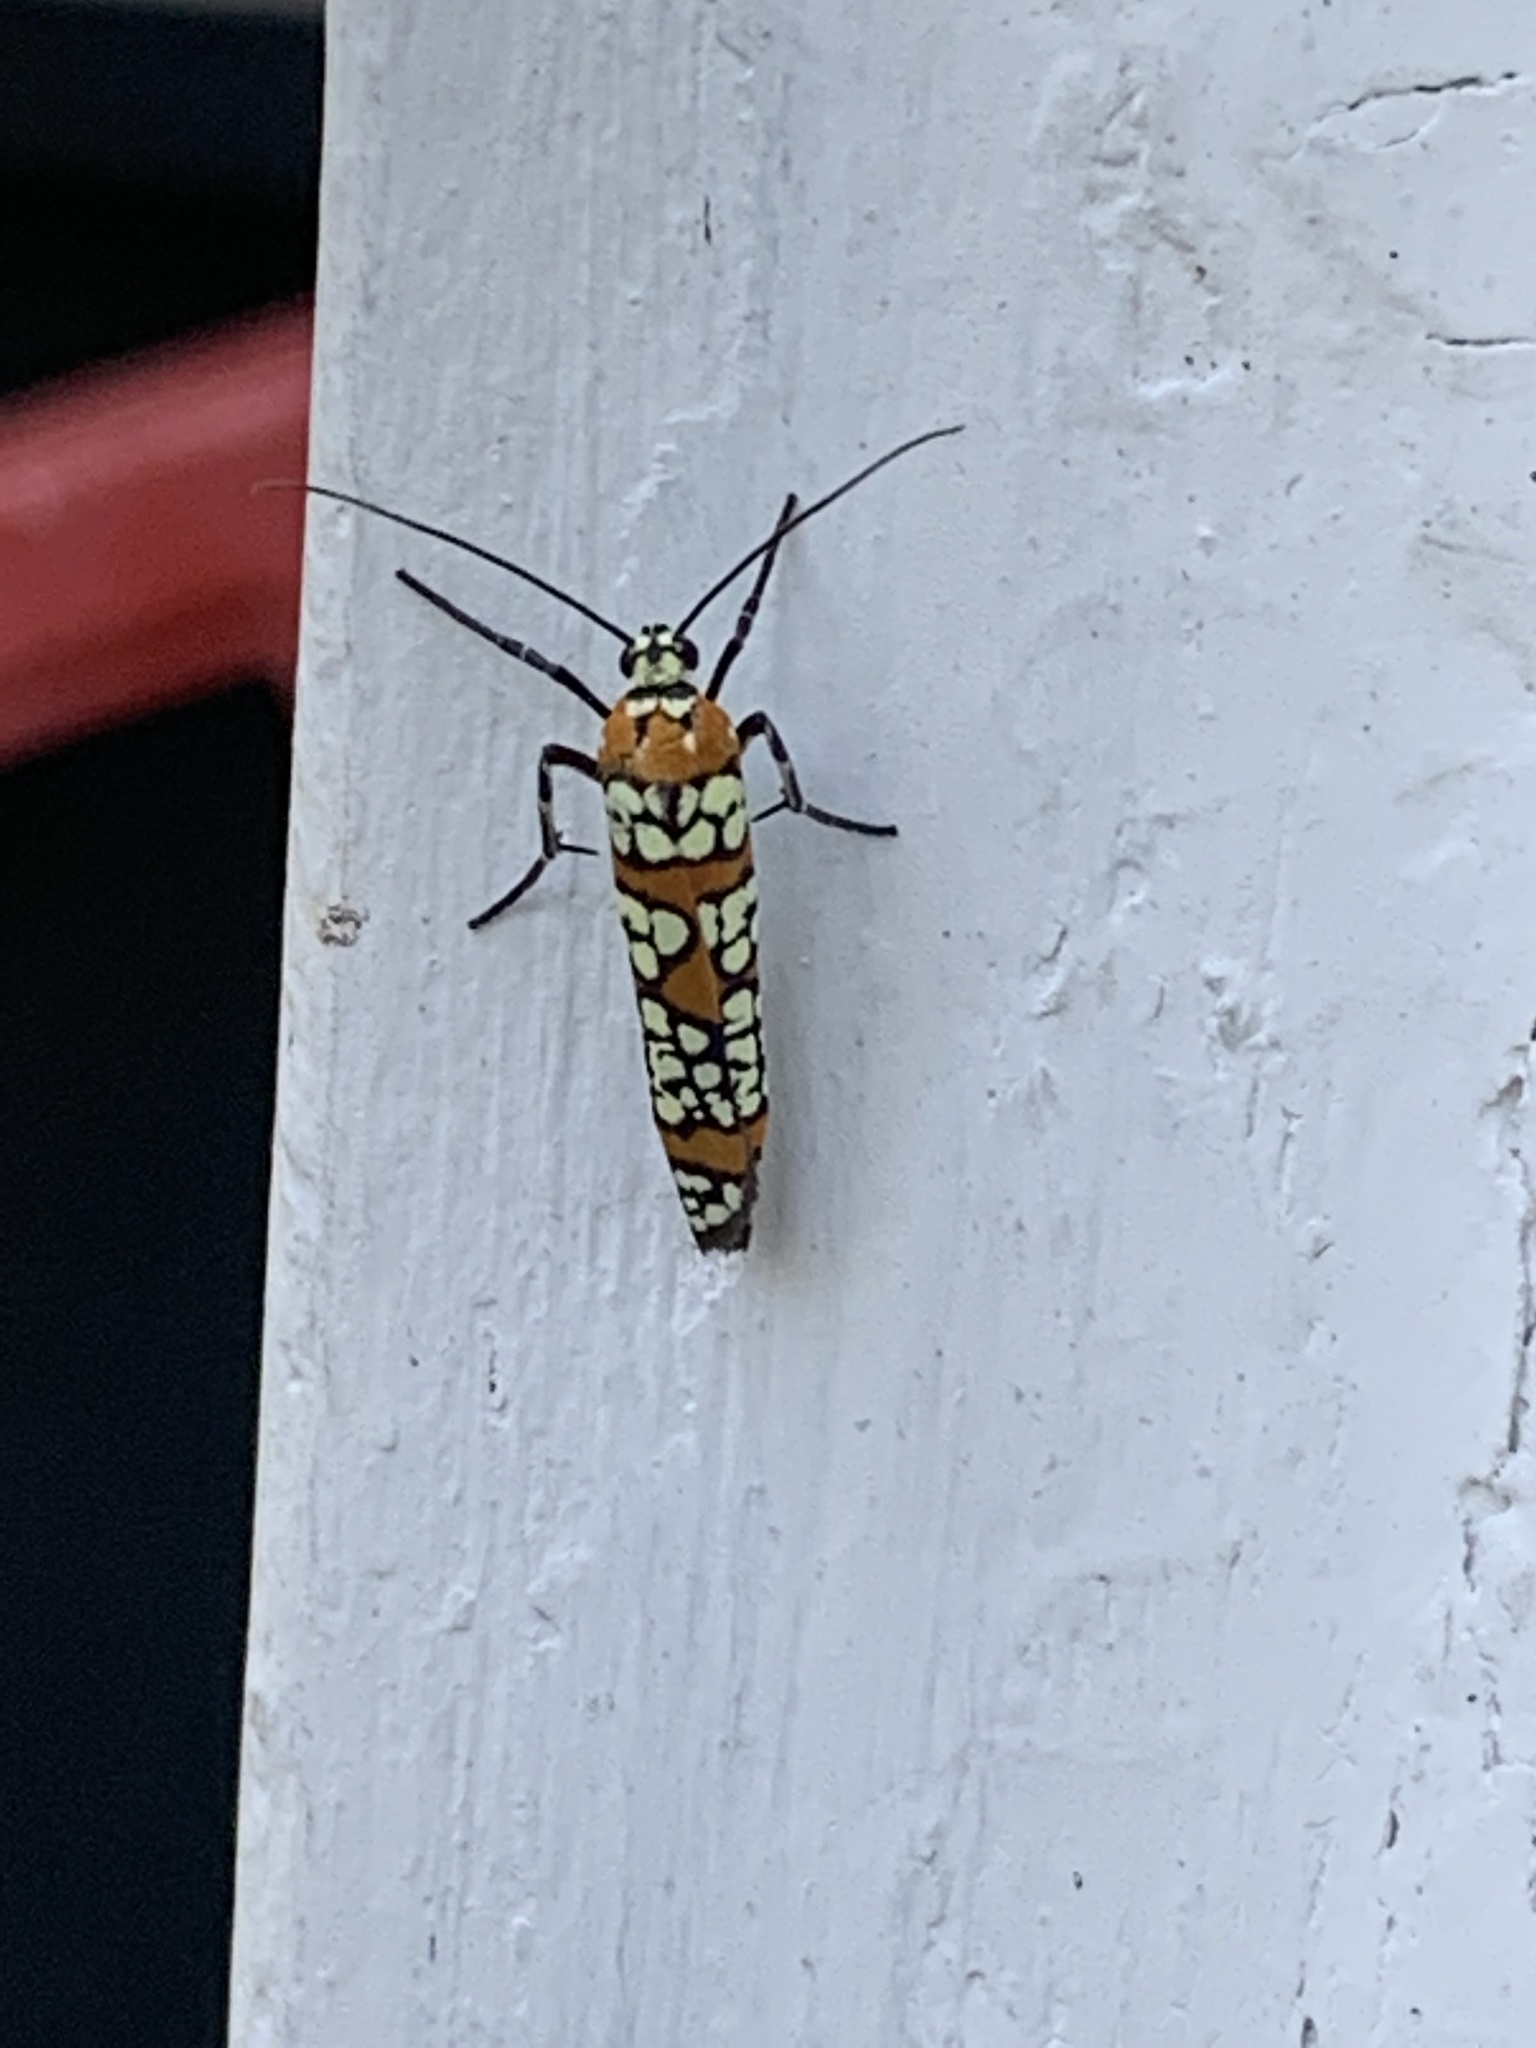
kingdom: Animalia
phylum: Arthropoda
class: Insecta
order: Lepidoptera
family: Attevidae
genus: Atteva
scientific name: Atteva punctella
